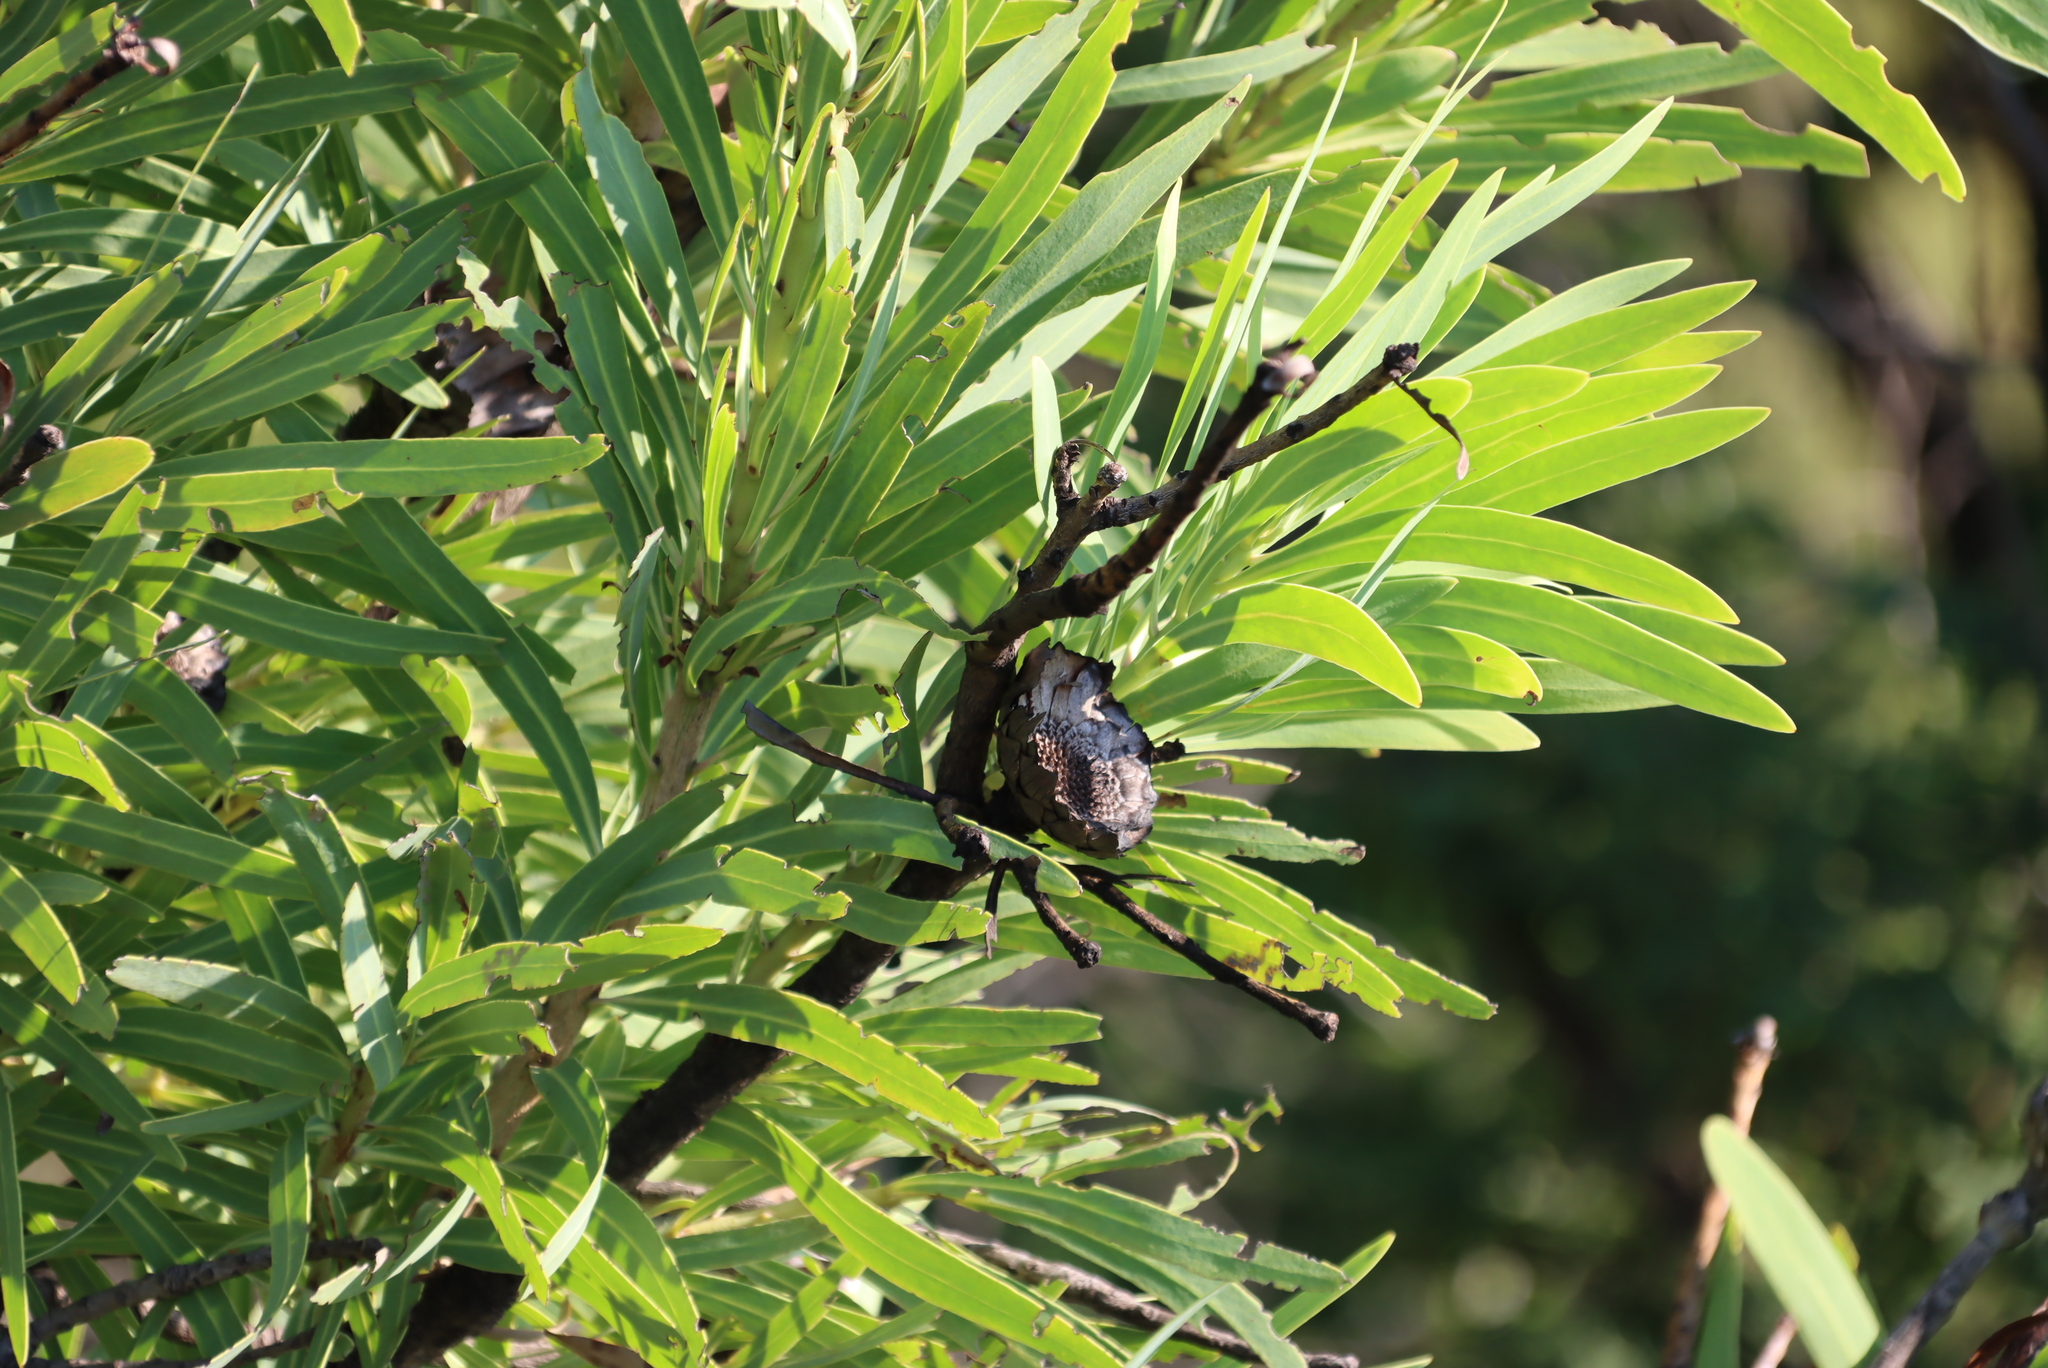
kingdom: Plantae
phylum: Tracheophyta
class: Magnoliopsida
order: Proteales
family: Proteaceae
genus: Protea
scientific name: Protea caffra
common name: Common sugarbush
